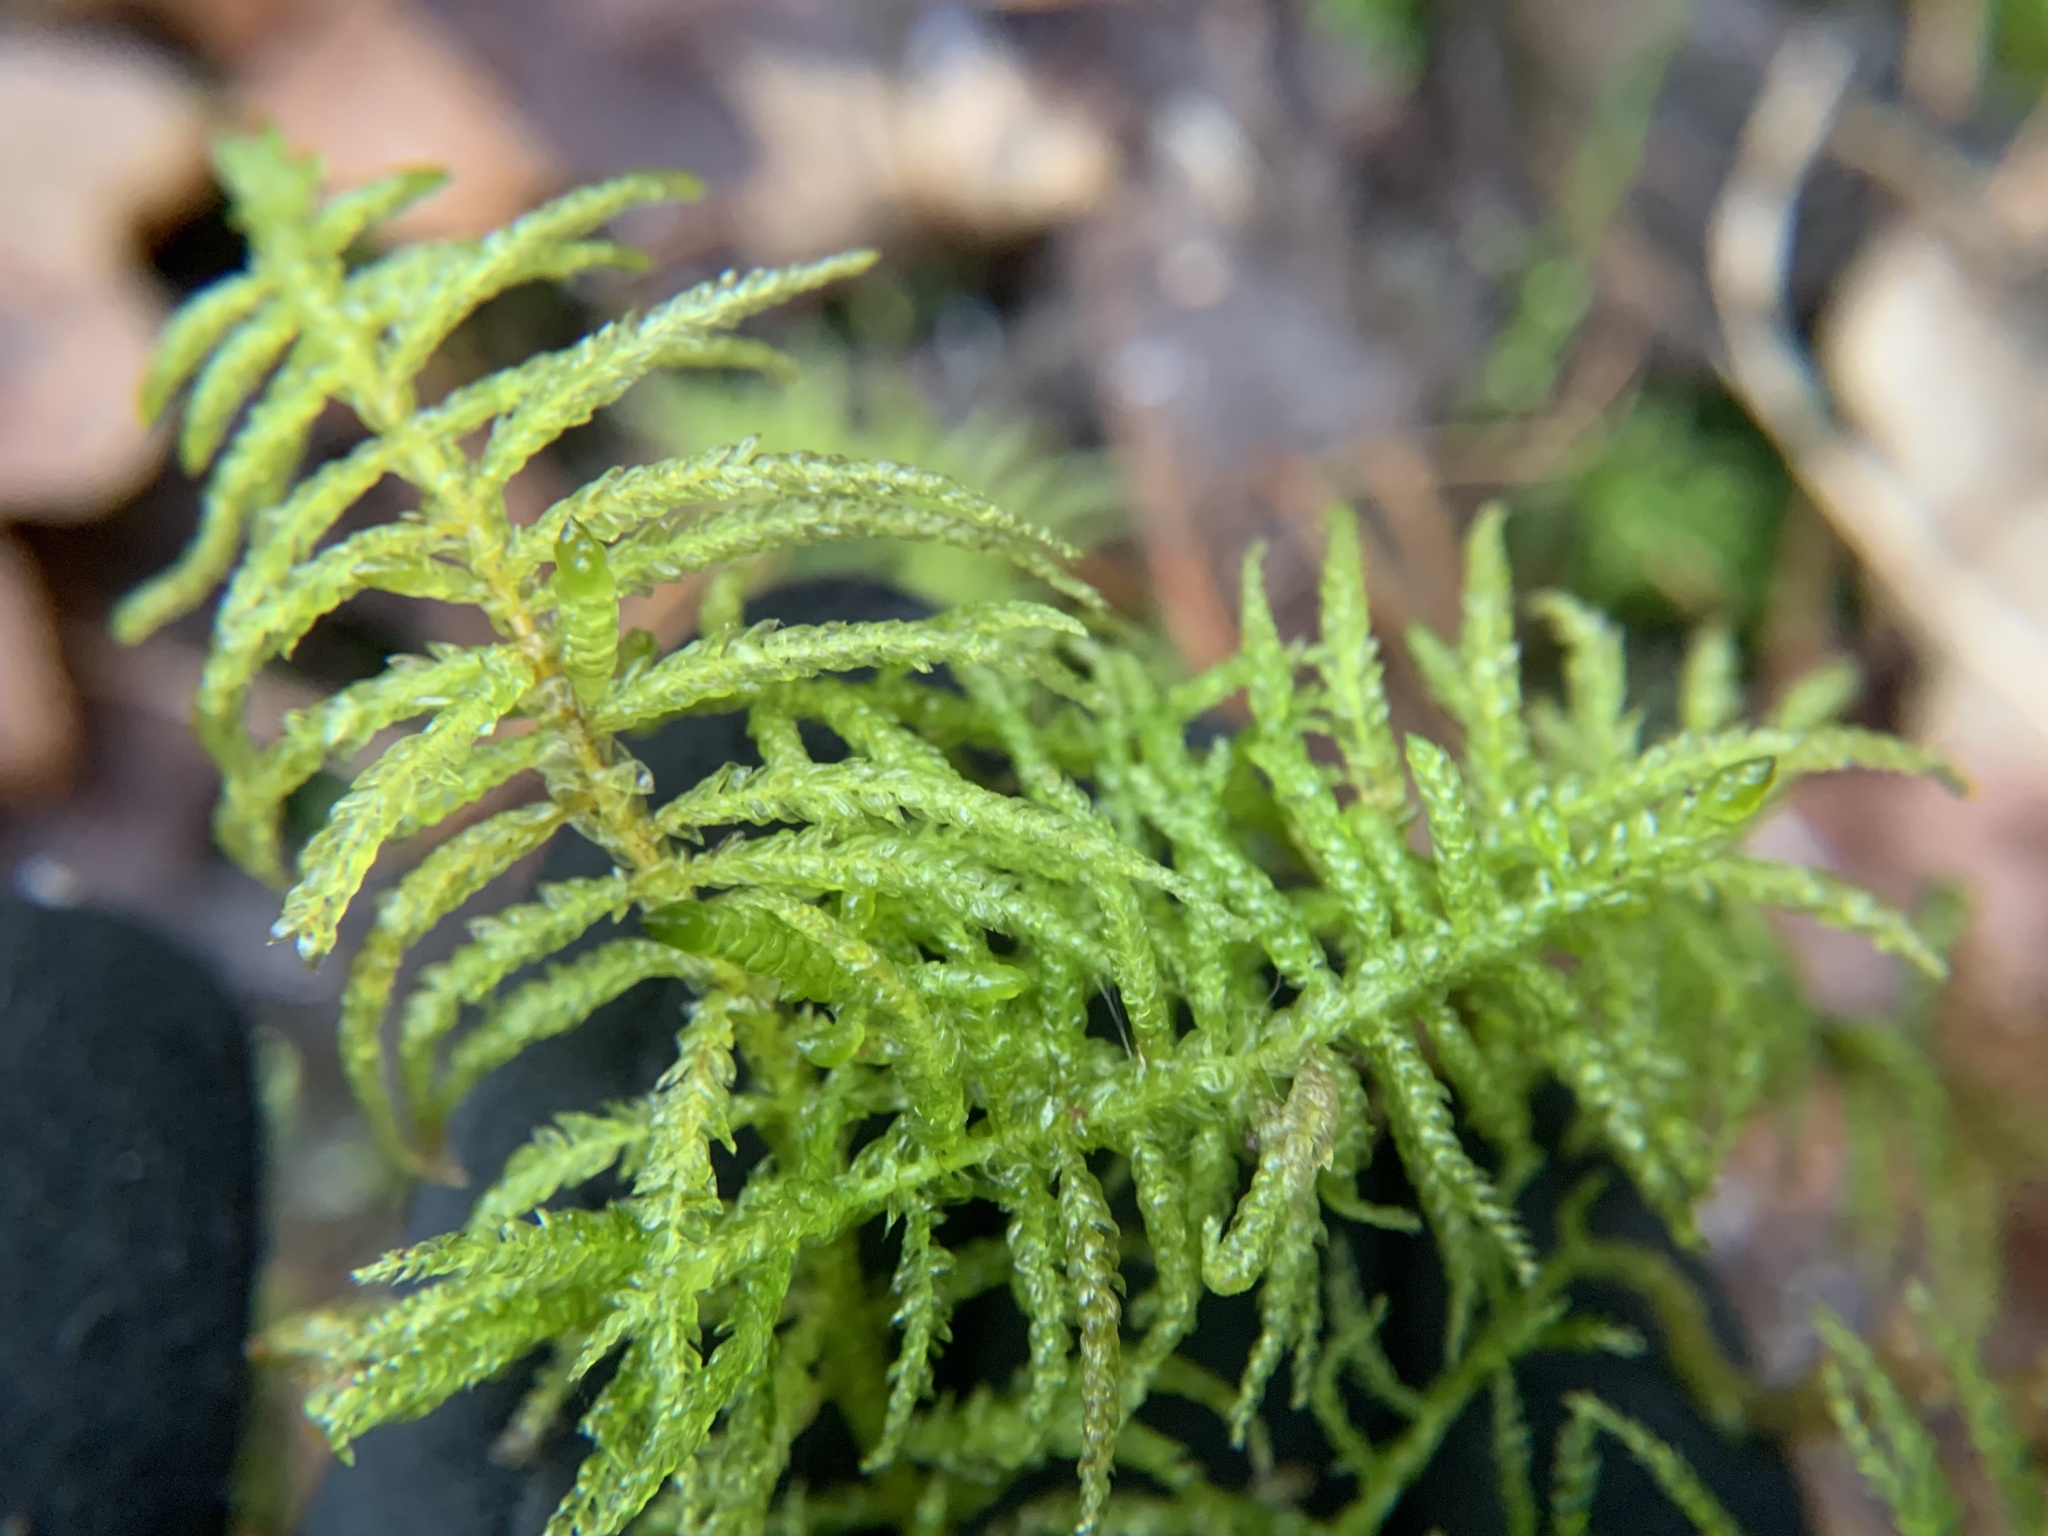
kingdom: Plantae
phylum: Bryophyta
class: Bryopsida
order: Hypnales
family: Brachytheciaceae
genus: Pseudoscleropodium
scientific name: Pseudoscleropodium purum
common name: Neat feather-moss
